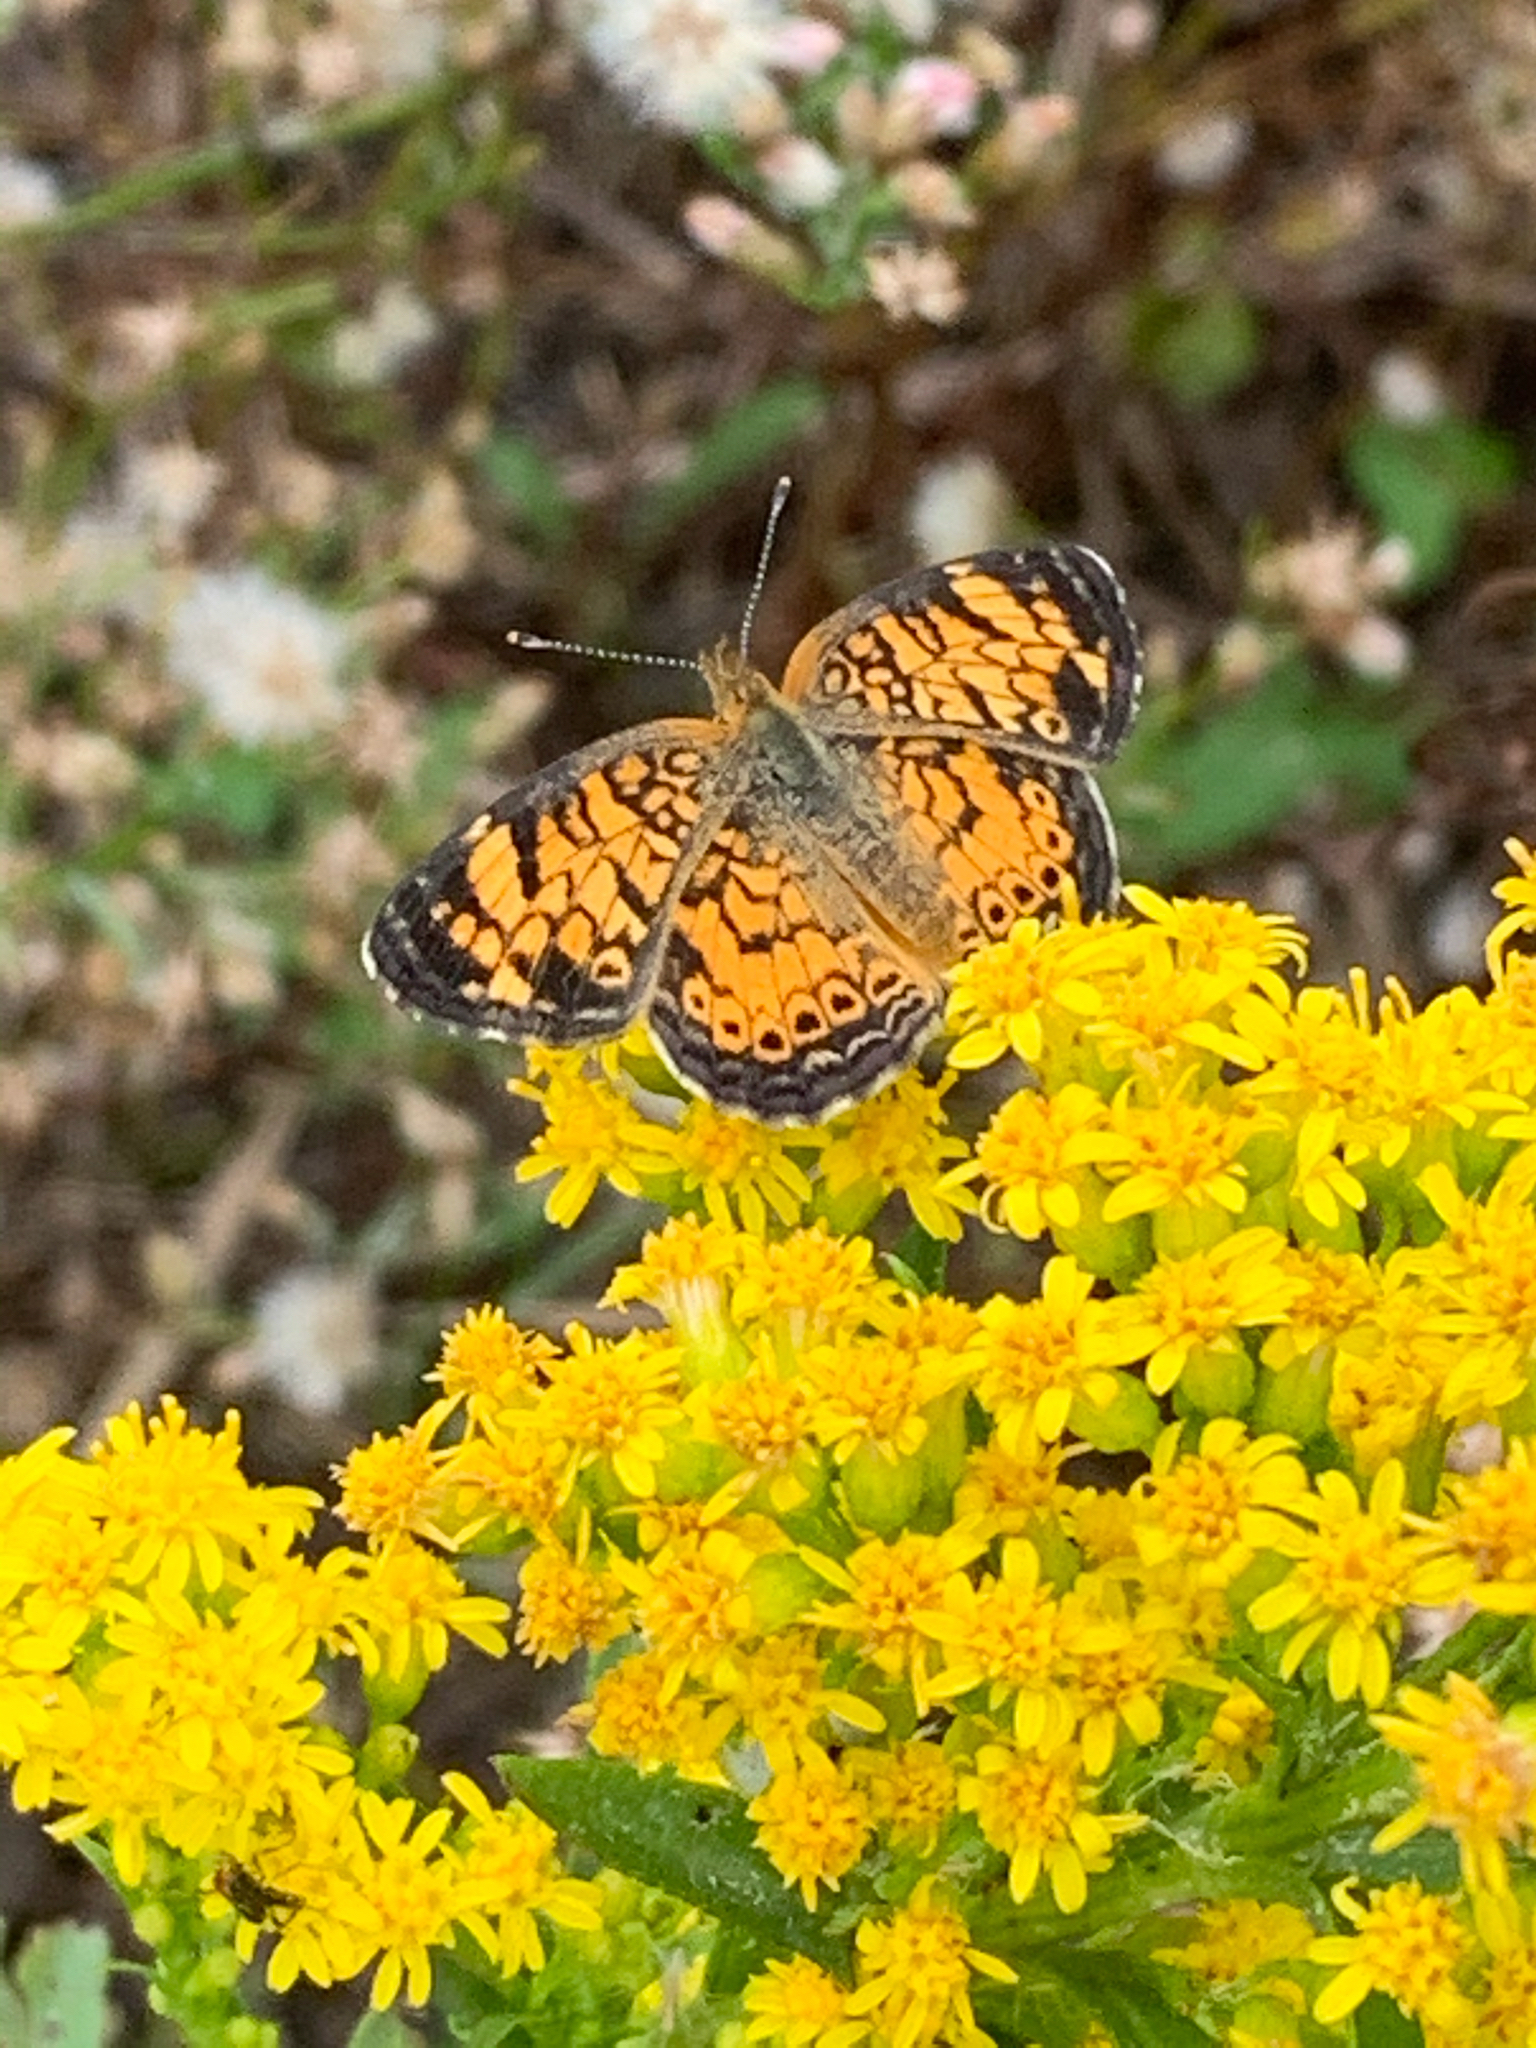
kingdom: Animalia
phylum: Arthropoda
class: Insecta
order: Lepidoptera
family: Nymphalidae
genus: Phyciodes
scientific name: Phyciodes tharos
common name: Pearl crescent
